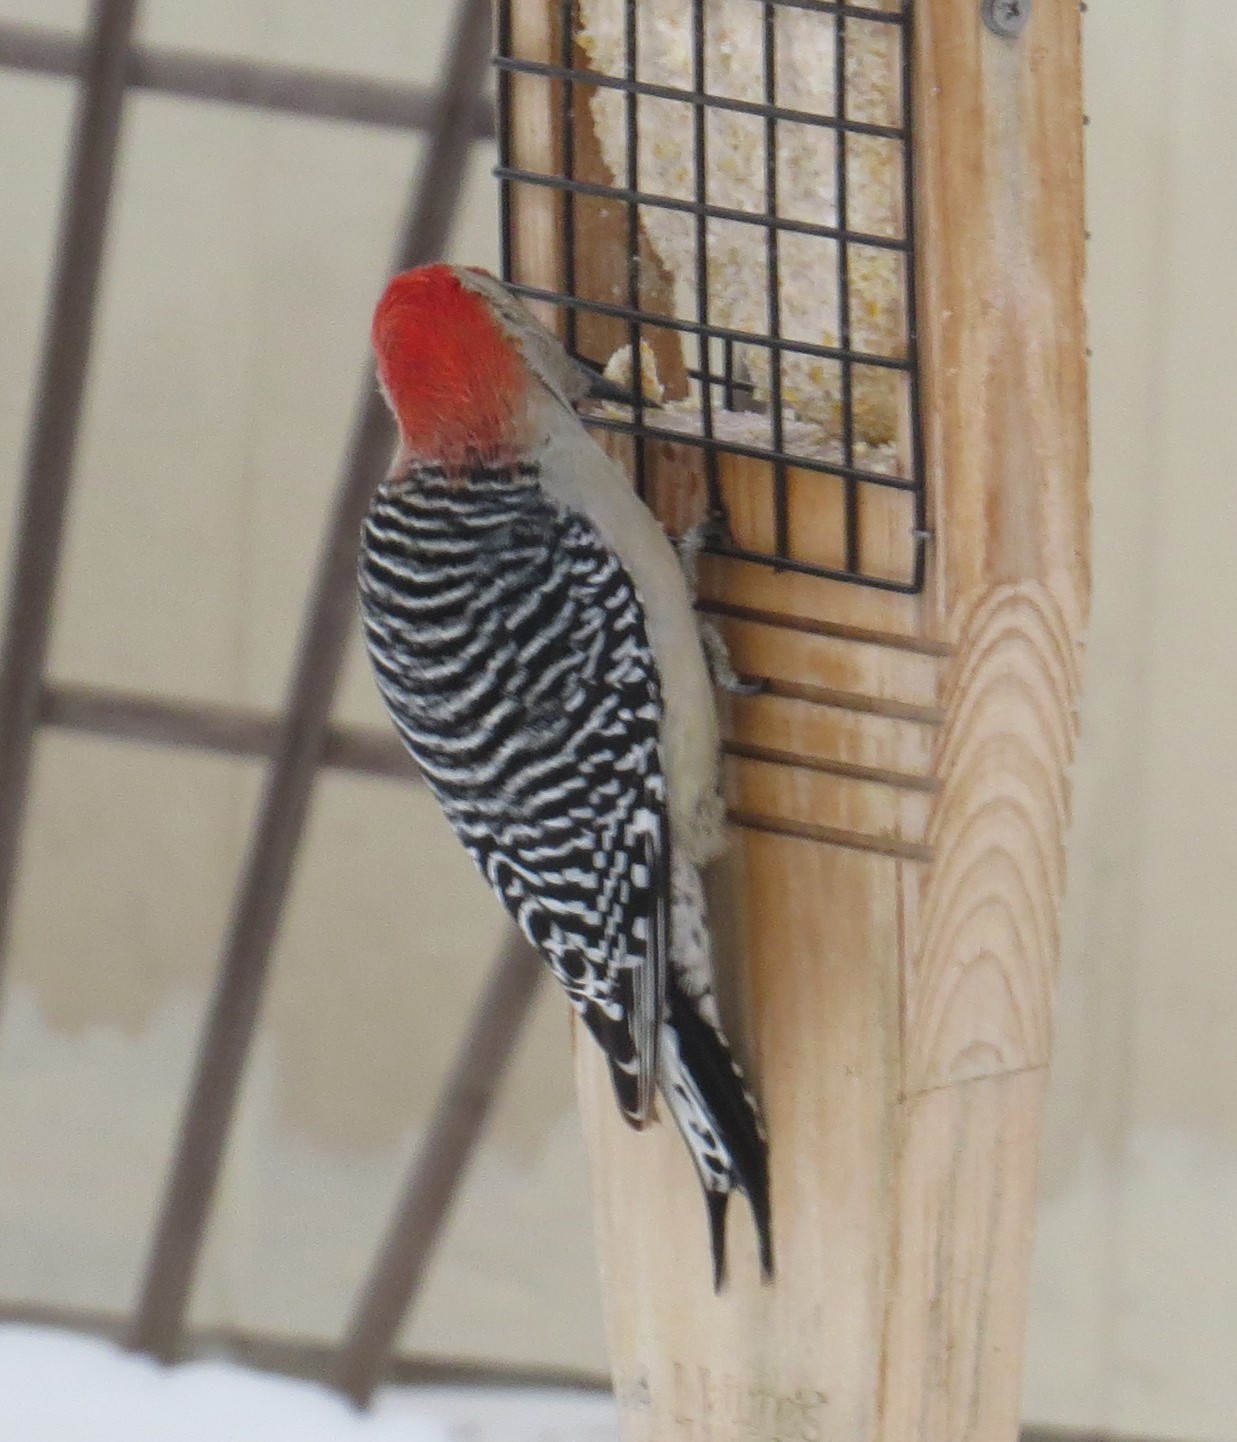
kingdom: Animalia
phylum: Chordata
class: Aves
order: Piciformes
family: Picidae
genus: Melanerpes
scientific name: Melanerpes carolinus
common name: Red-bellied woodpecker
